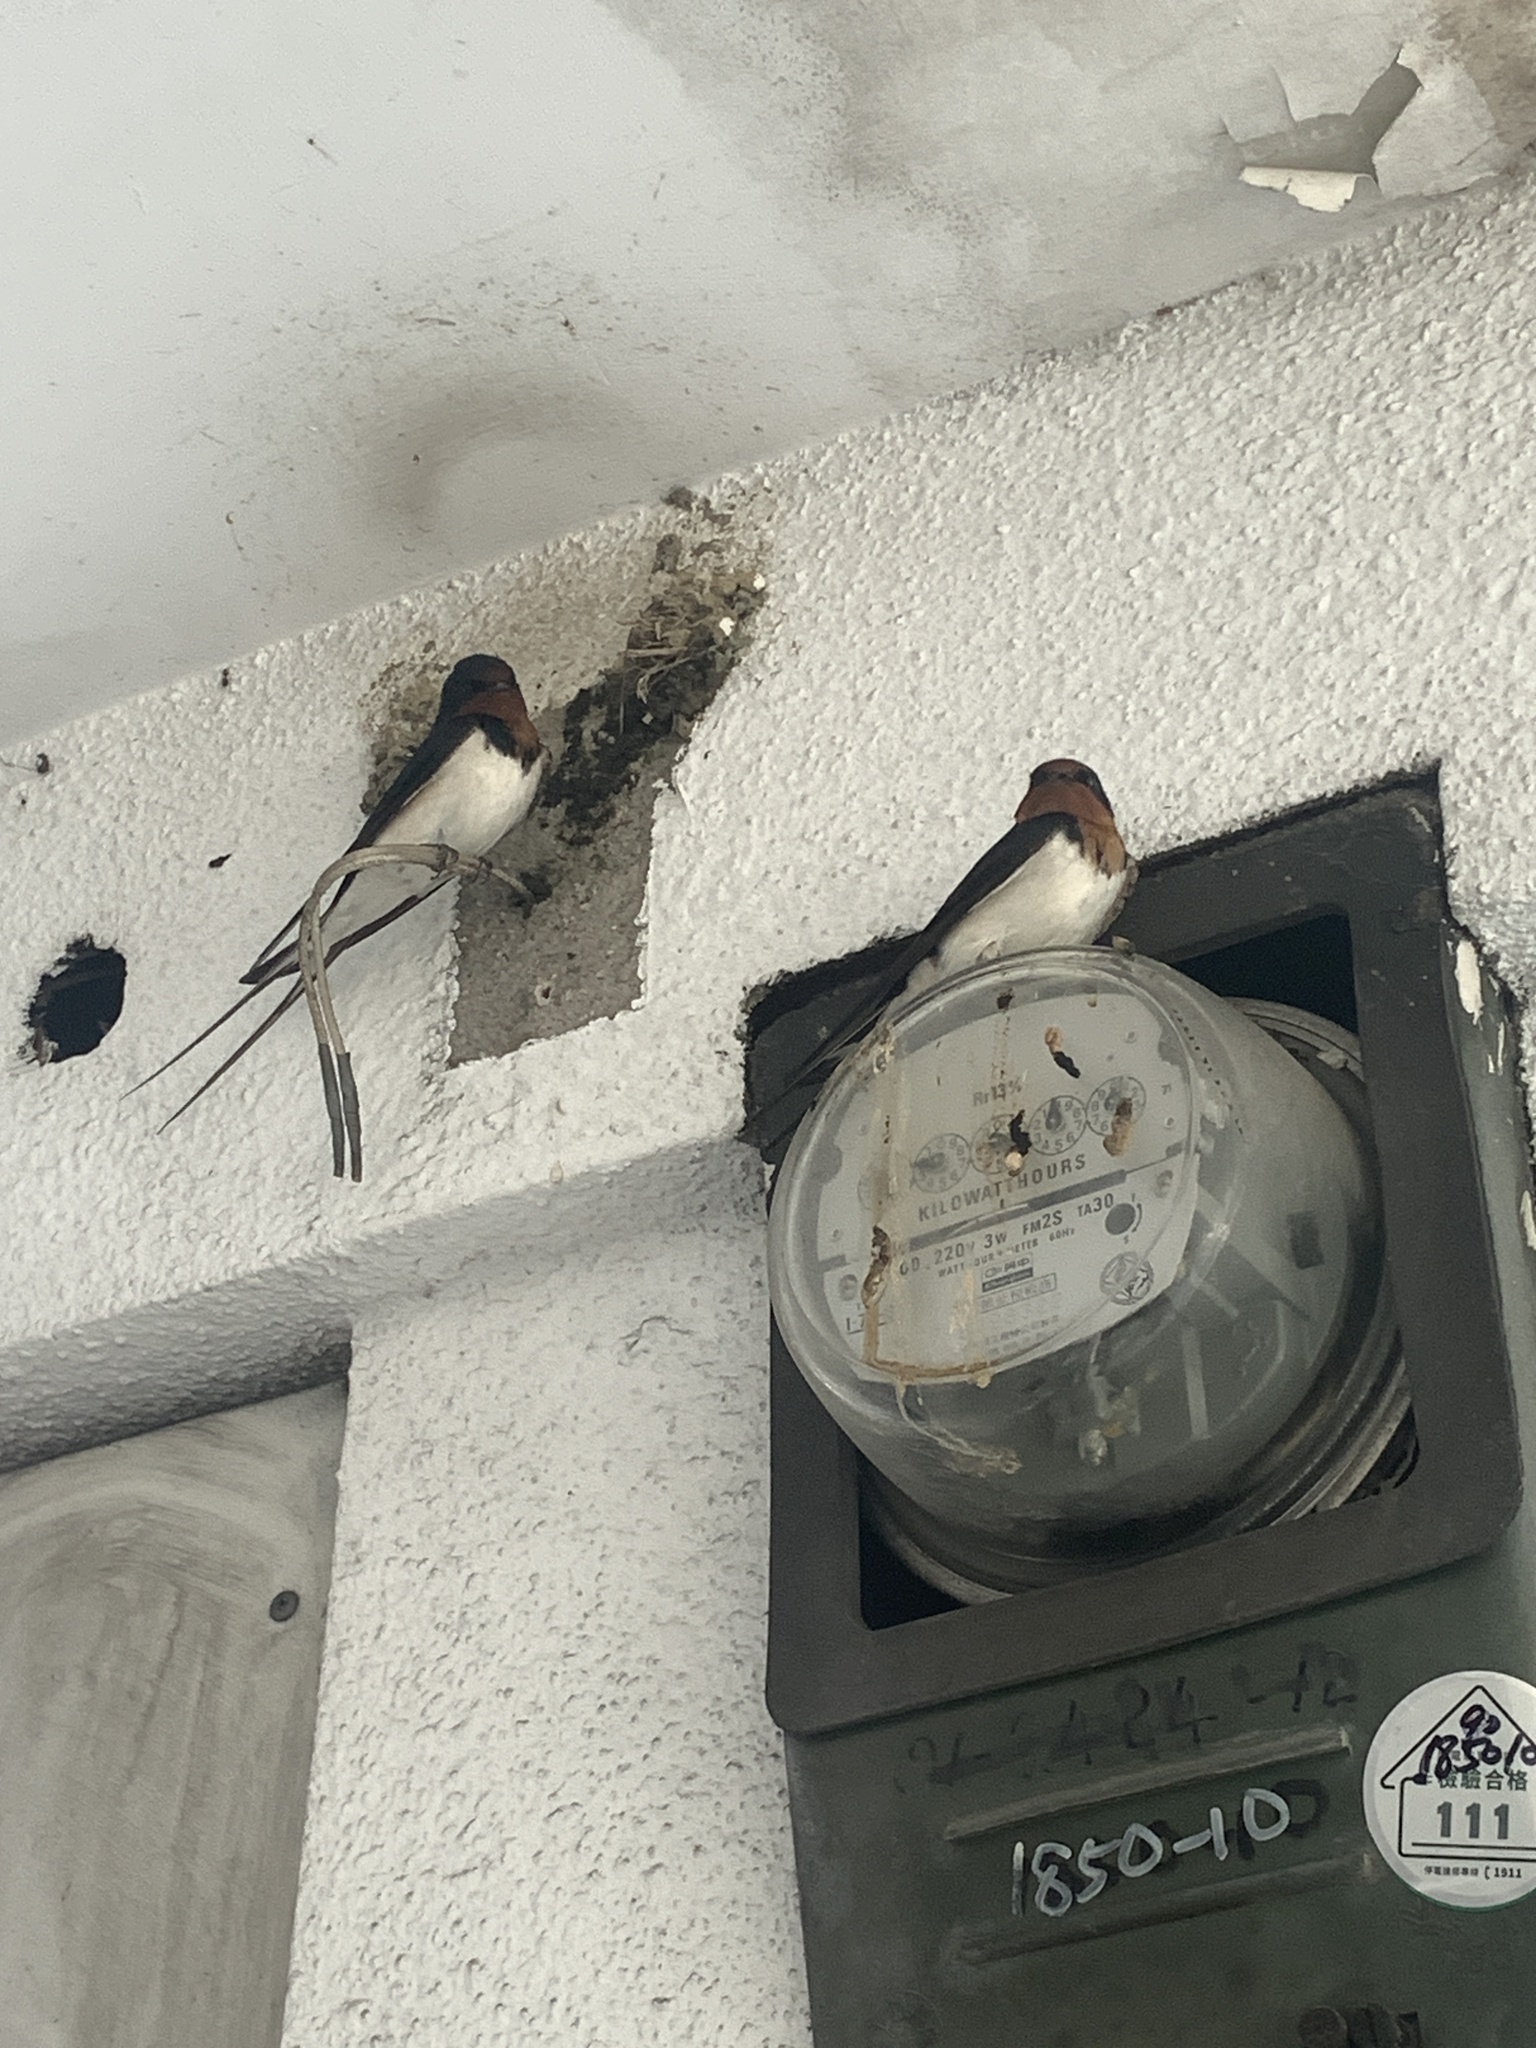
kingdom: Animalia
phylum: Chordata
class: Aves
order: Passeriformes
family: Hirundinidae
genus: Hirundo
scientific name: Hirundo rustica
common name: Barn swallow
